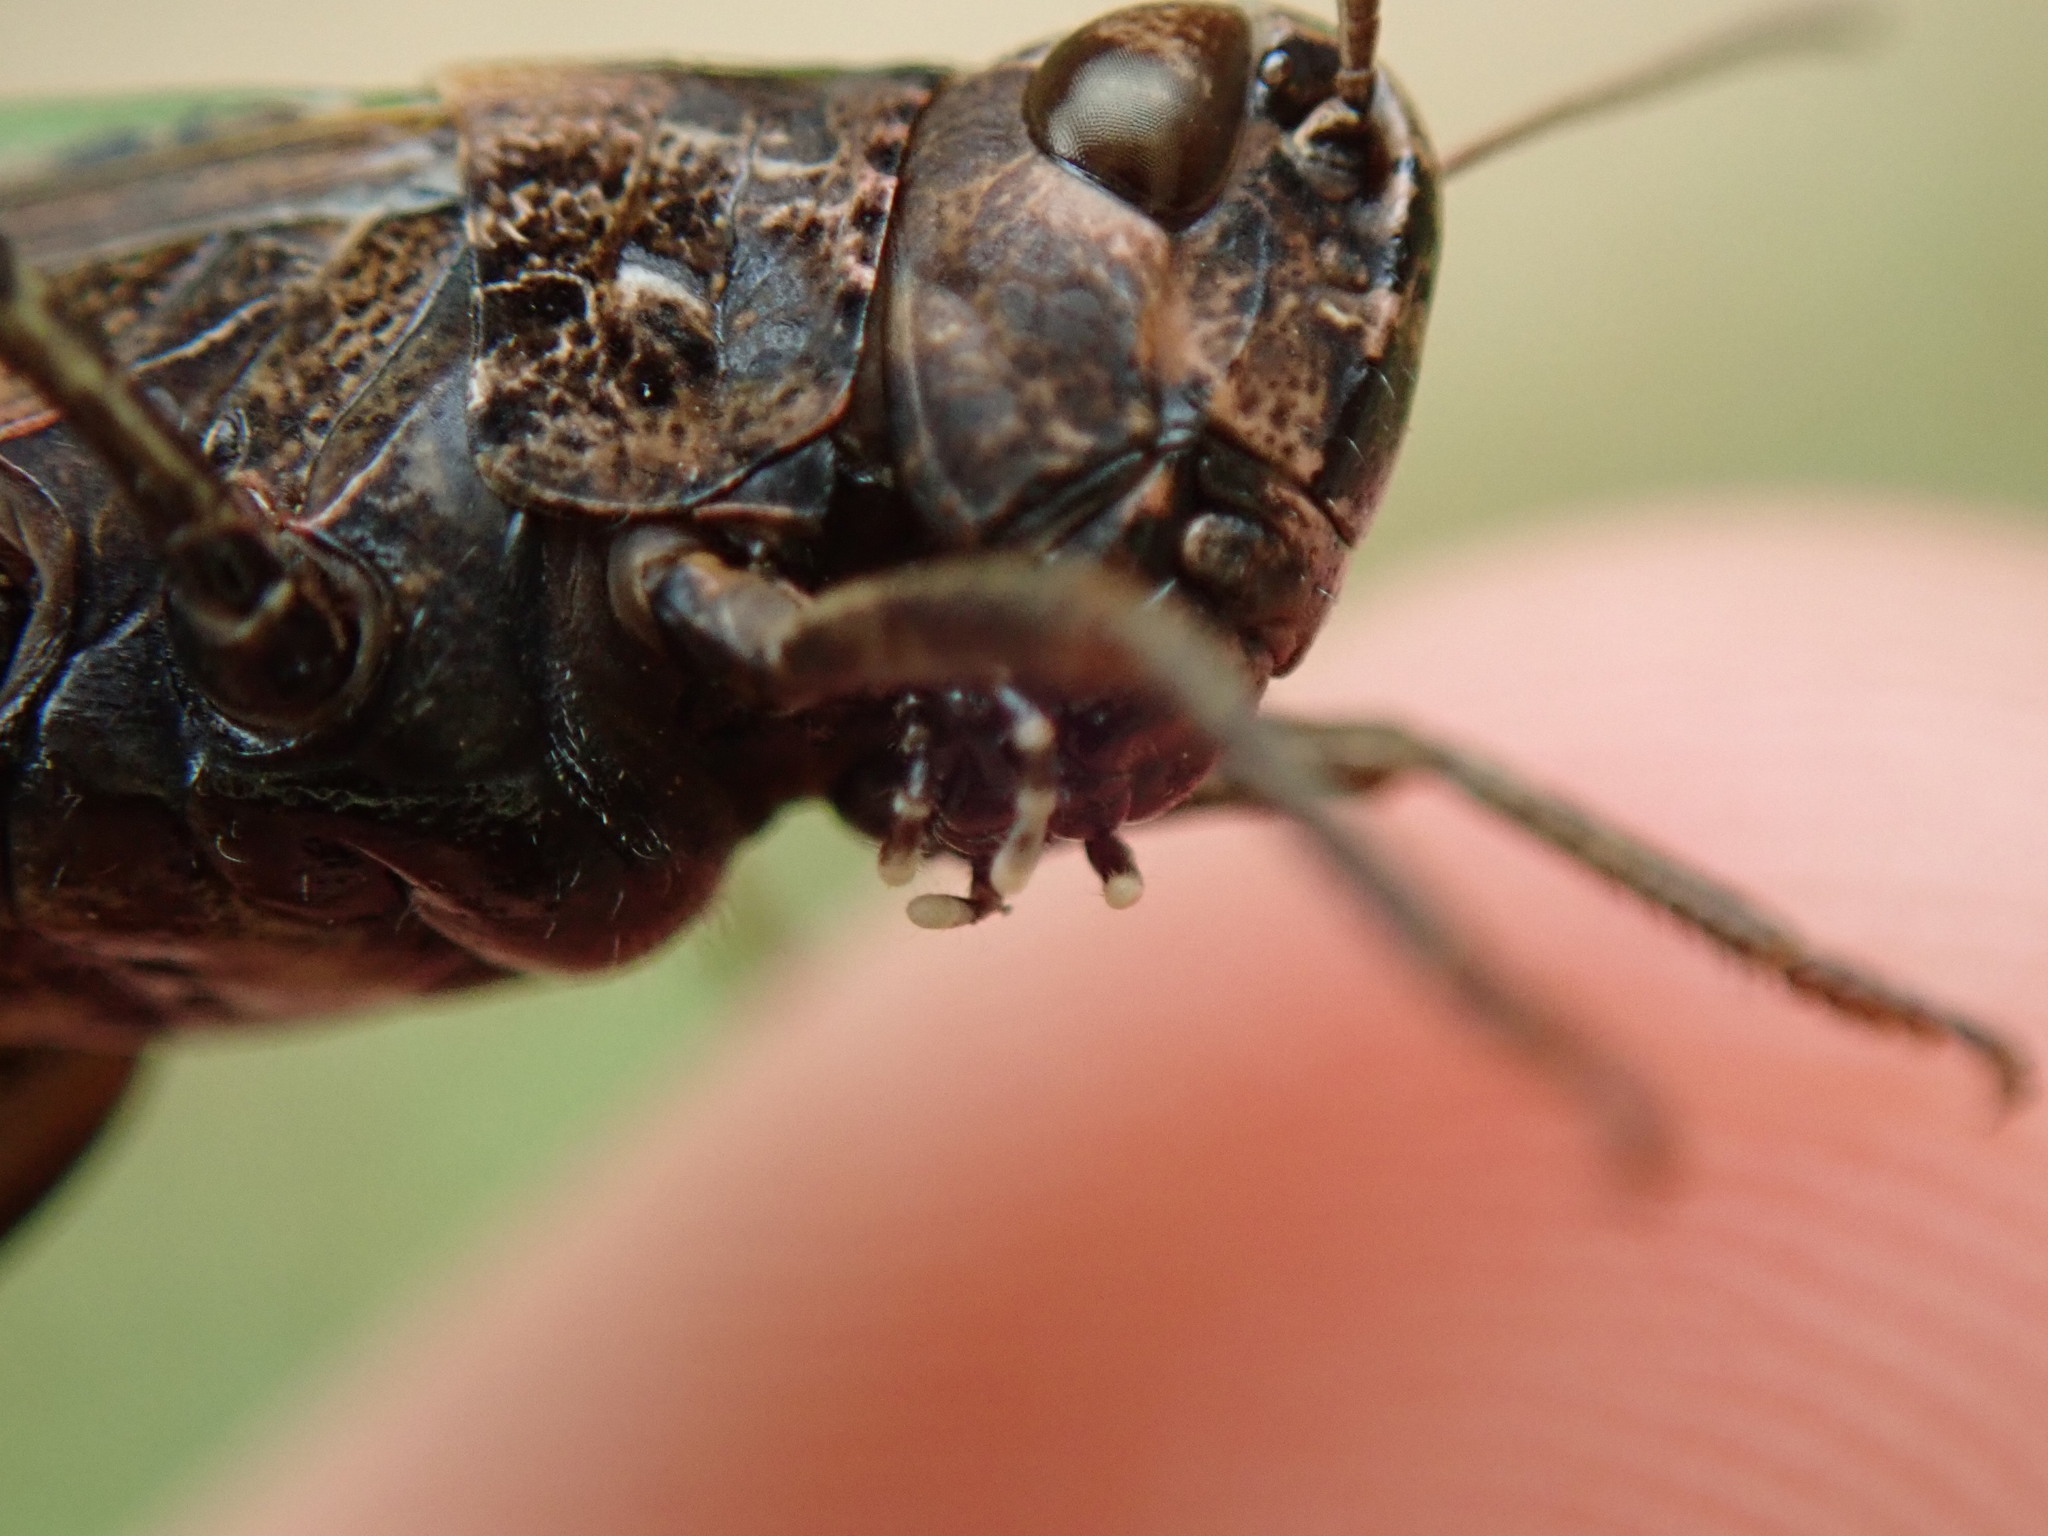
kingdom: Animalia
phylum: Arthropoda
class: Insecta
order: Orthoptera
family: Acrididae
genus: Omocestus
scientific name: Omocestus rufipes
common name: Woodland grasshopper
